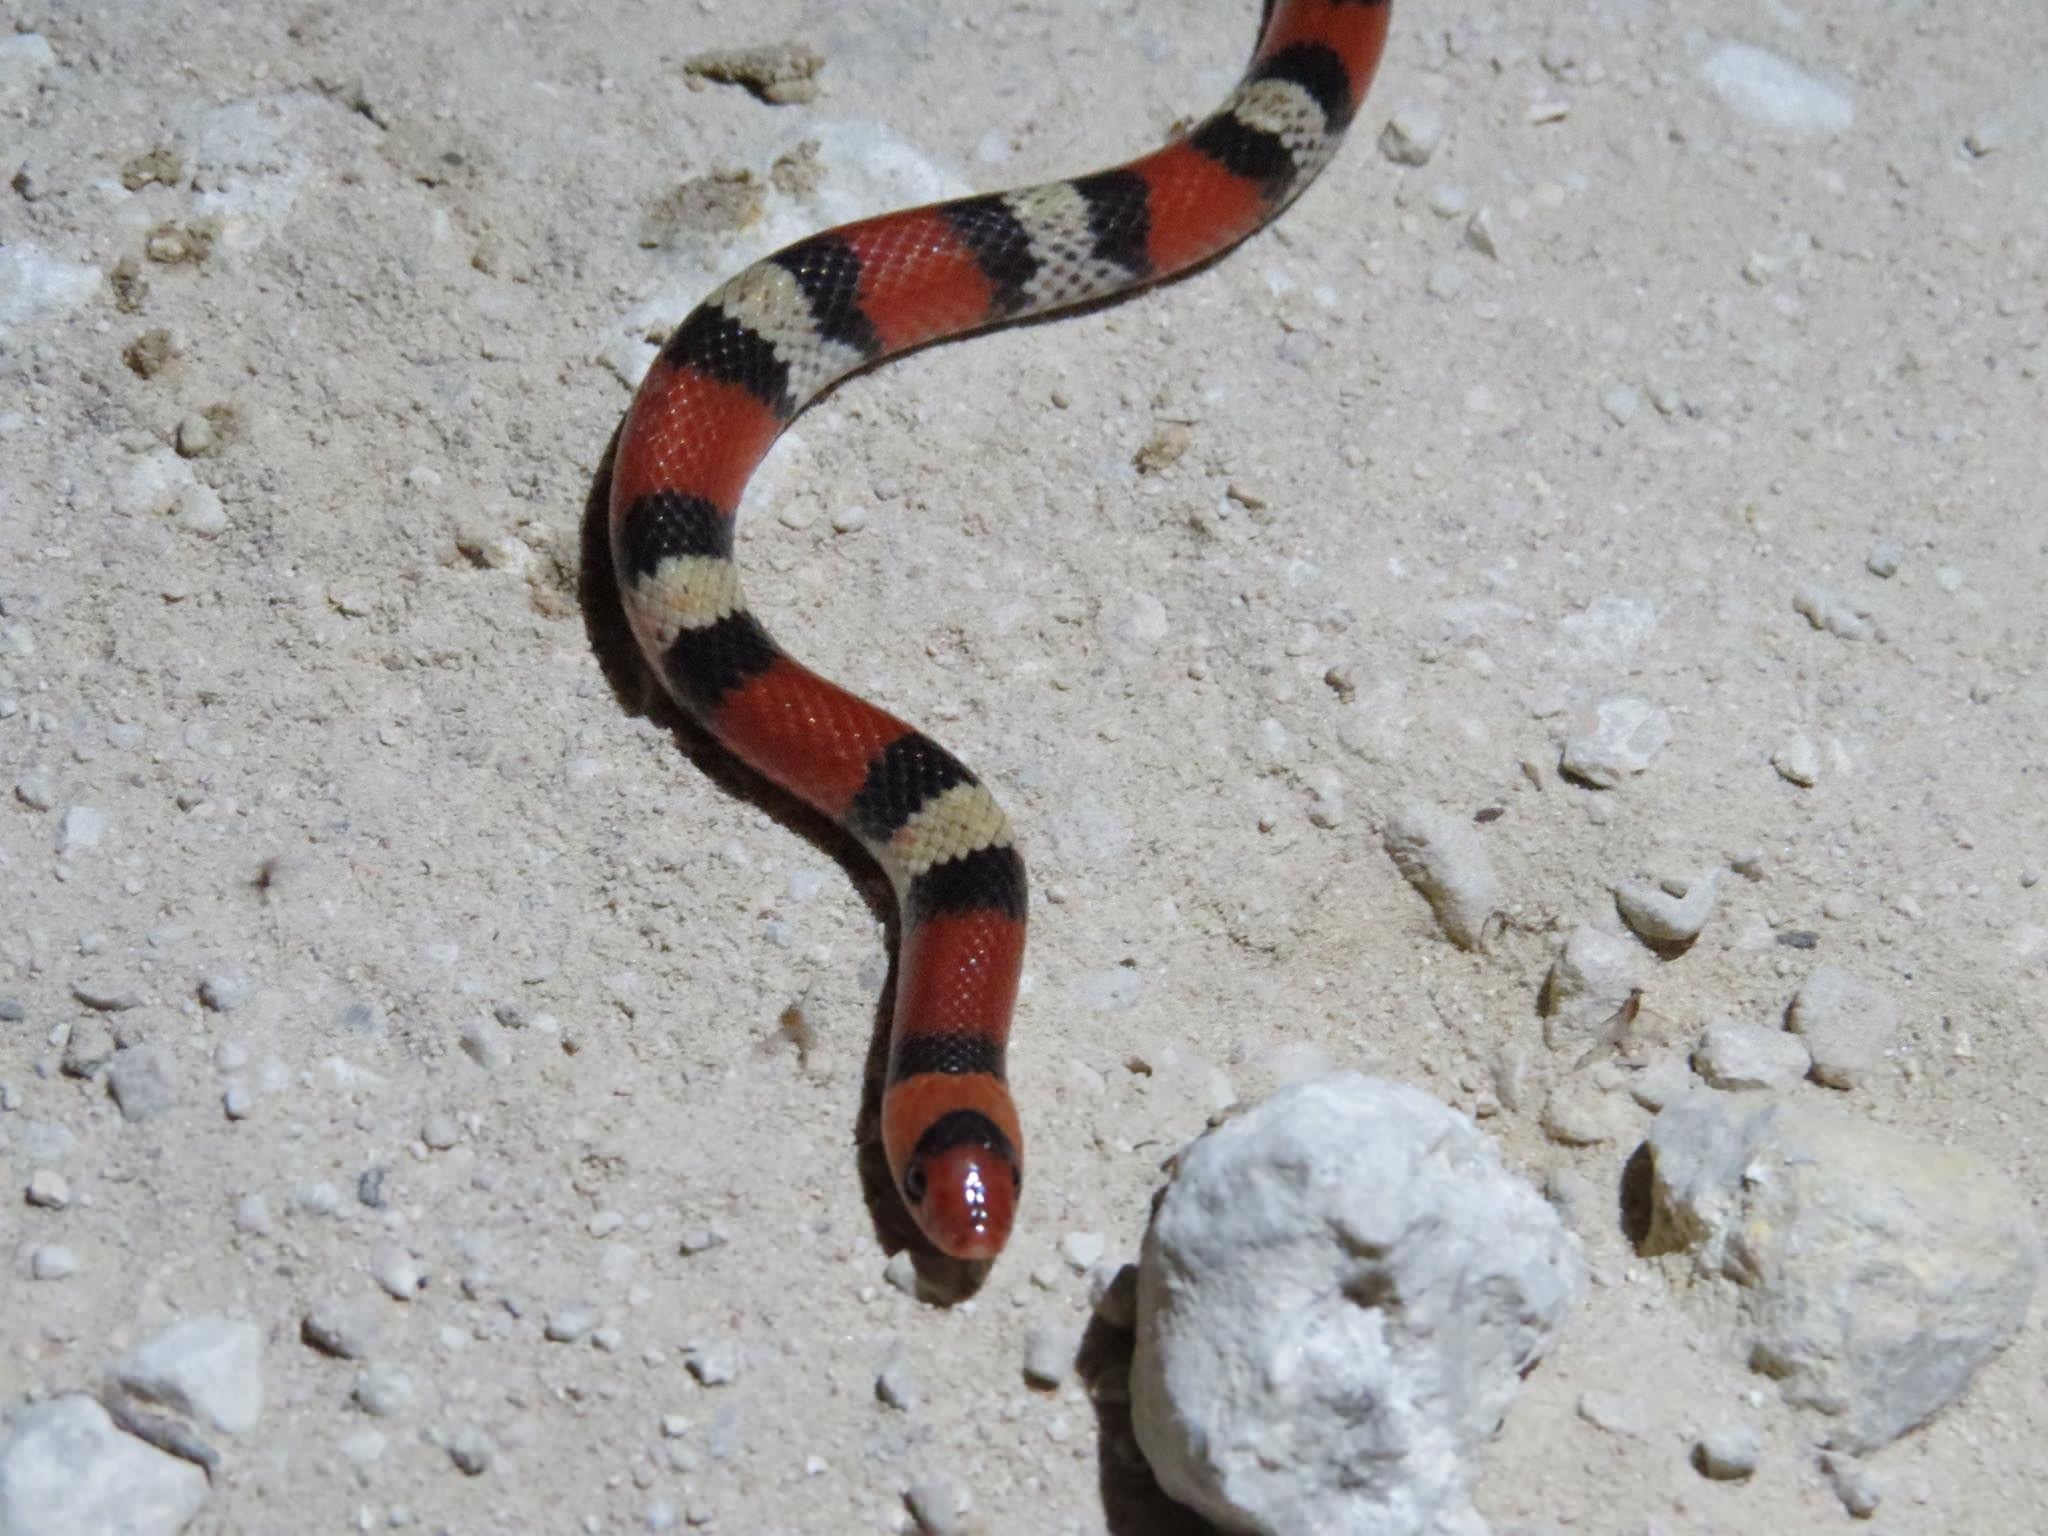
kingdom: Animalia
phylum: Chordata
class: Squamata
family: Colubridae
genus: Cemophora
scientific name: Cemophora coccinea
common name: Scarlet snake
